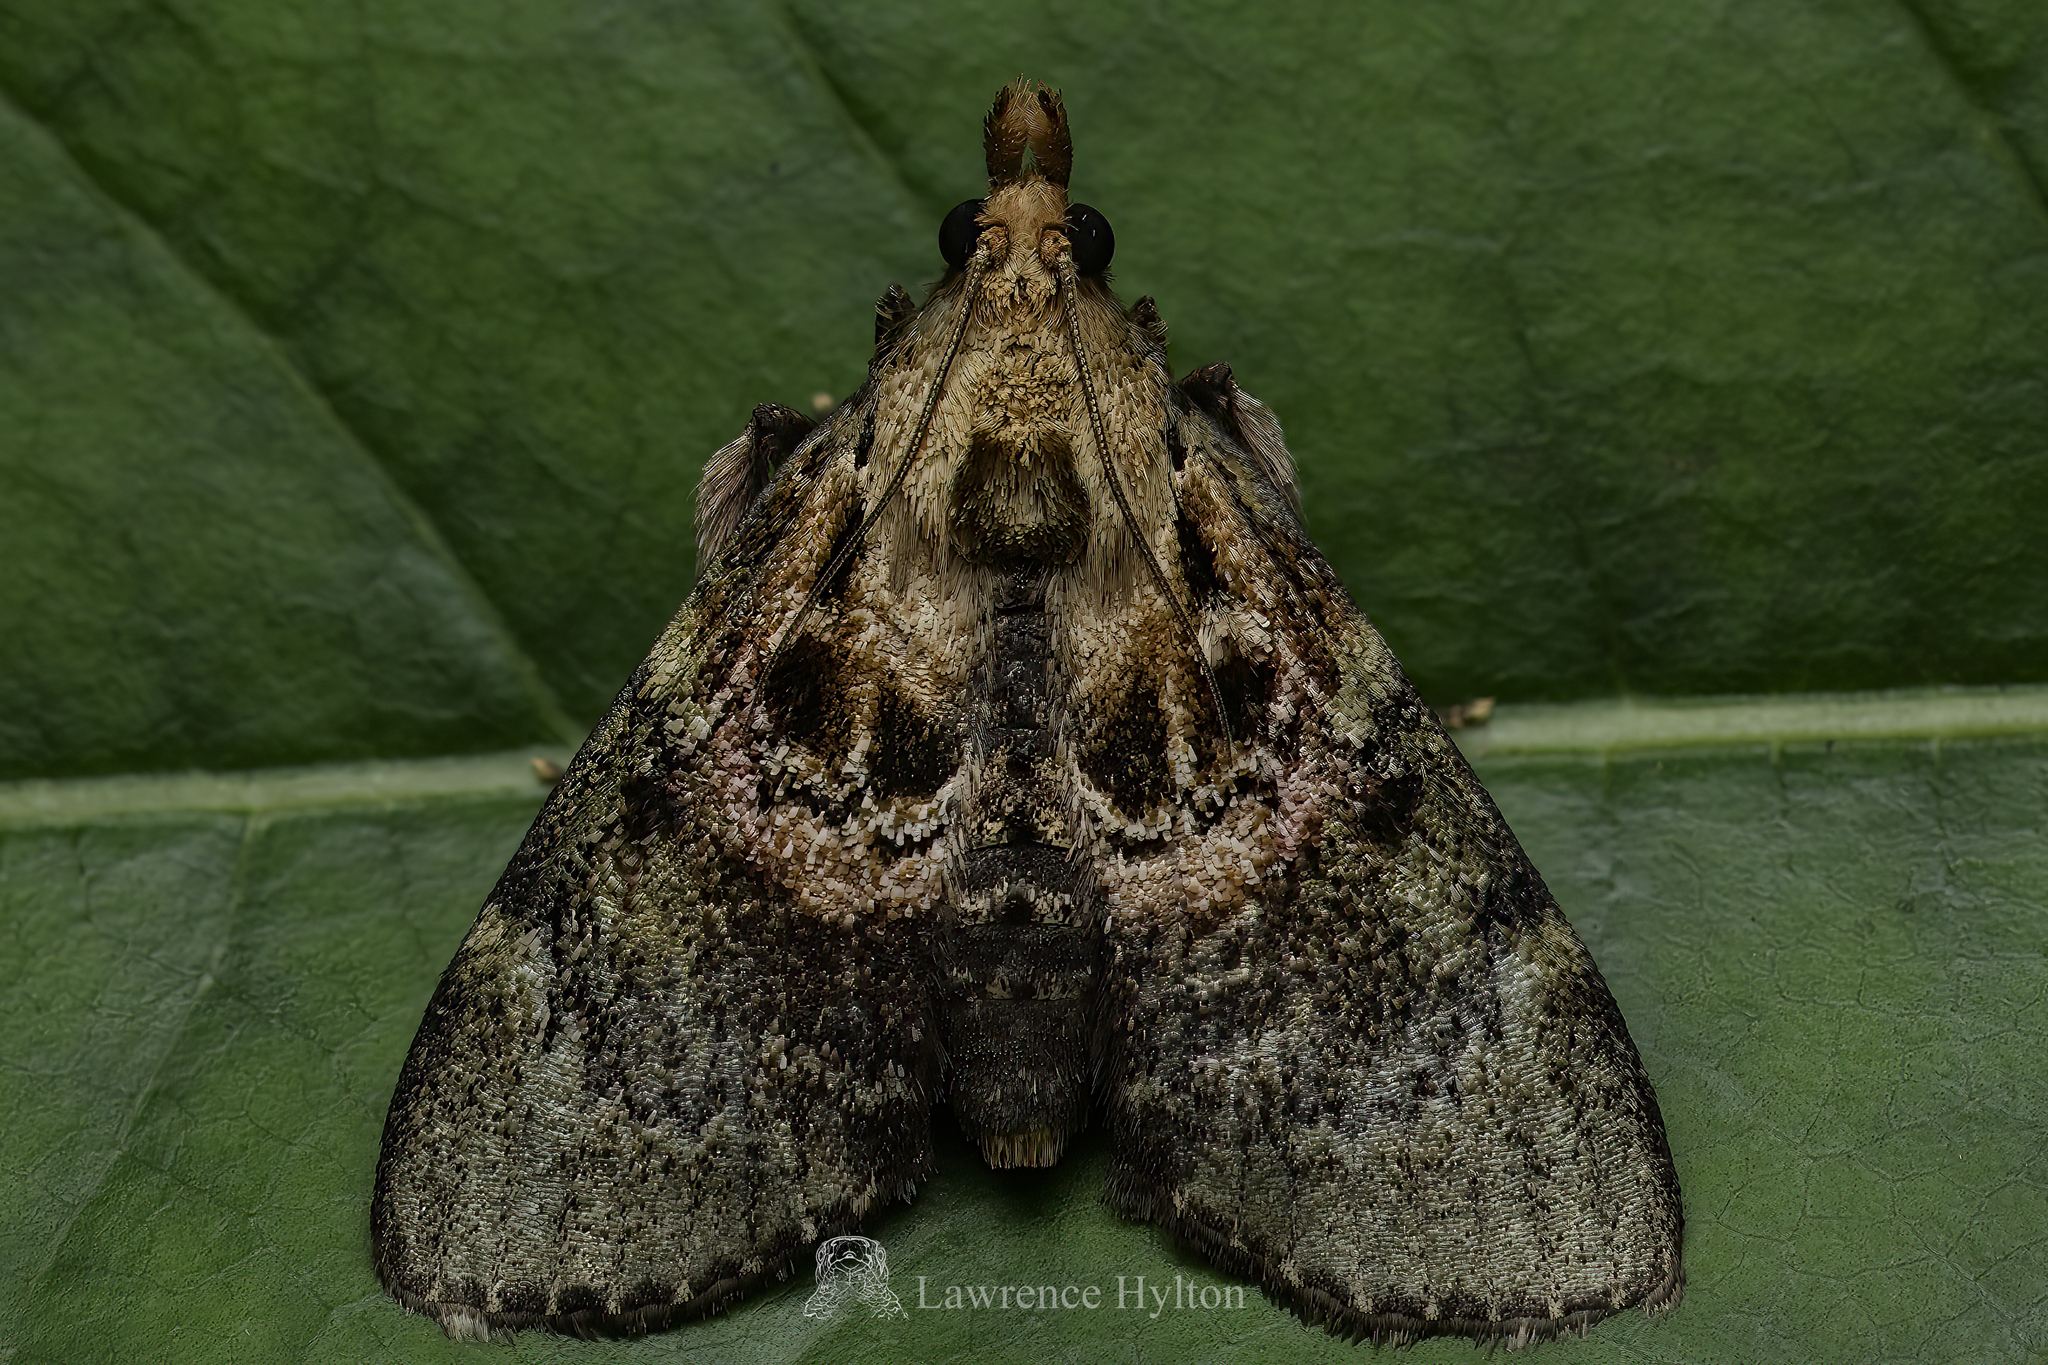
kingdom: Animalia
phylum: Arthropoda
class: Insecta
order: Lepidoptera
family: Pyralidae
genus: Locastra
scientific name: Locastra nigrilineata
